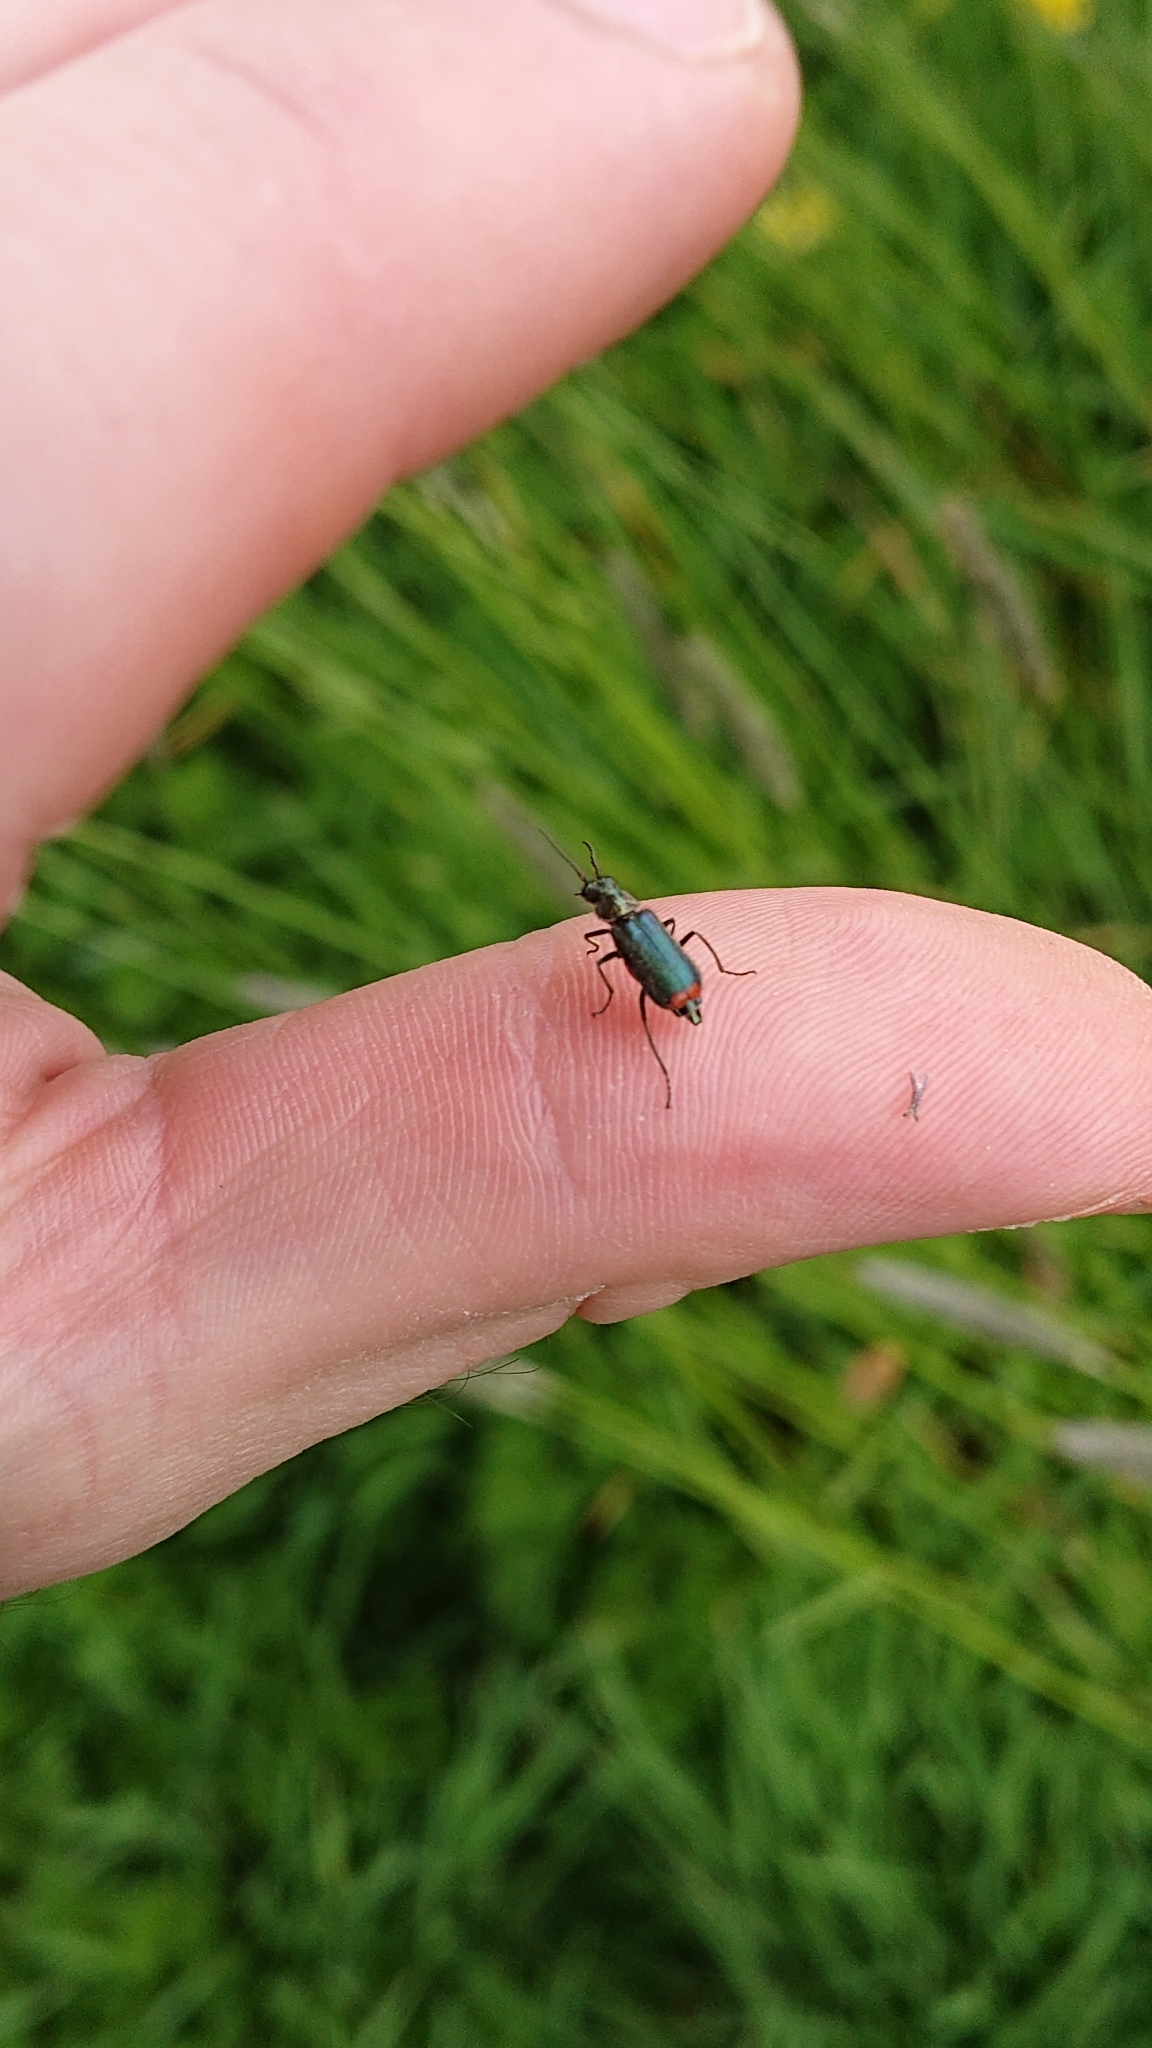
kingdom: Animalia
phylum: Arthropoda
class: Insecta
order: Coleoptera
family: Melyridae
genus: Malachius
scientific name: Malachius bipustulatus
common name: Malachite beetle
